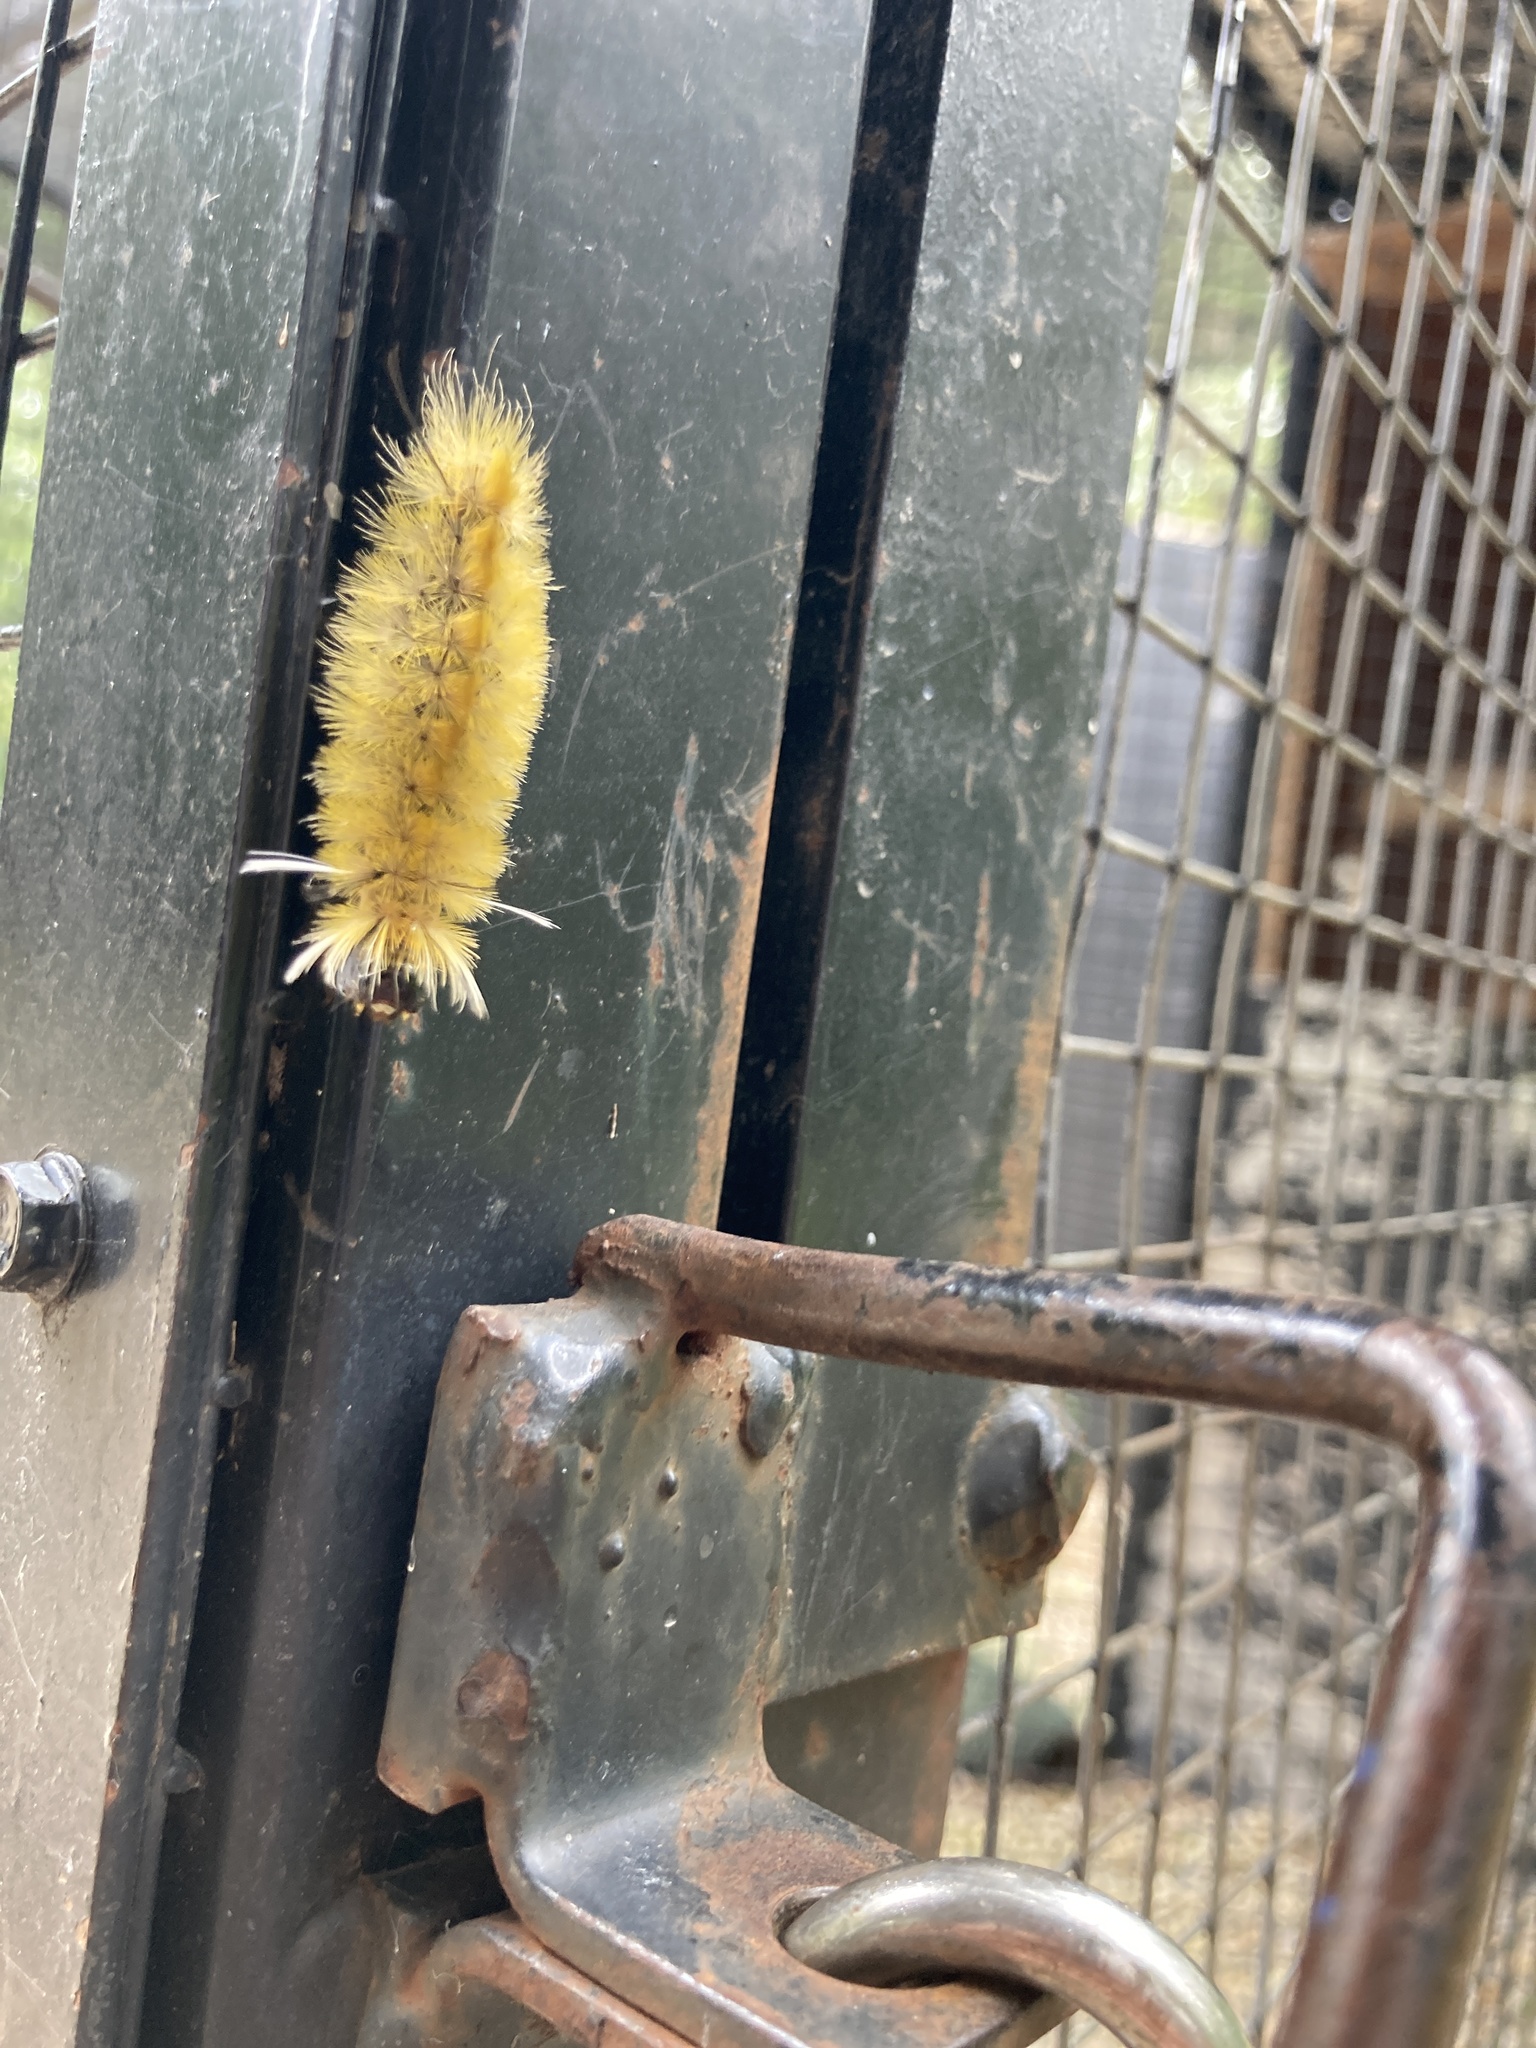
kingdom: Animalia
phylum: Arthropoda
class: Insecta
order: Lepidoptera
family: Erebidae
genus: Halysidota
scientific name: Halysidota tessellaris
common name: Banded tussock moth
